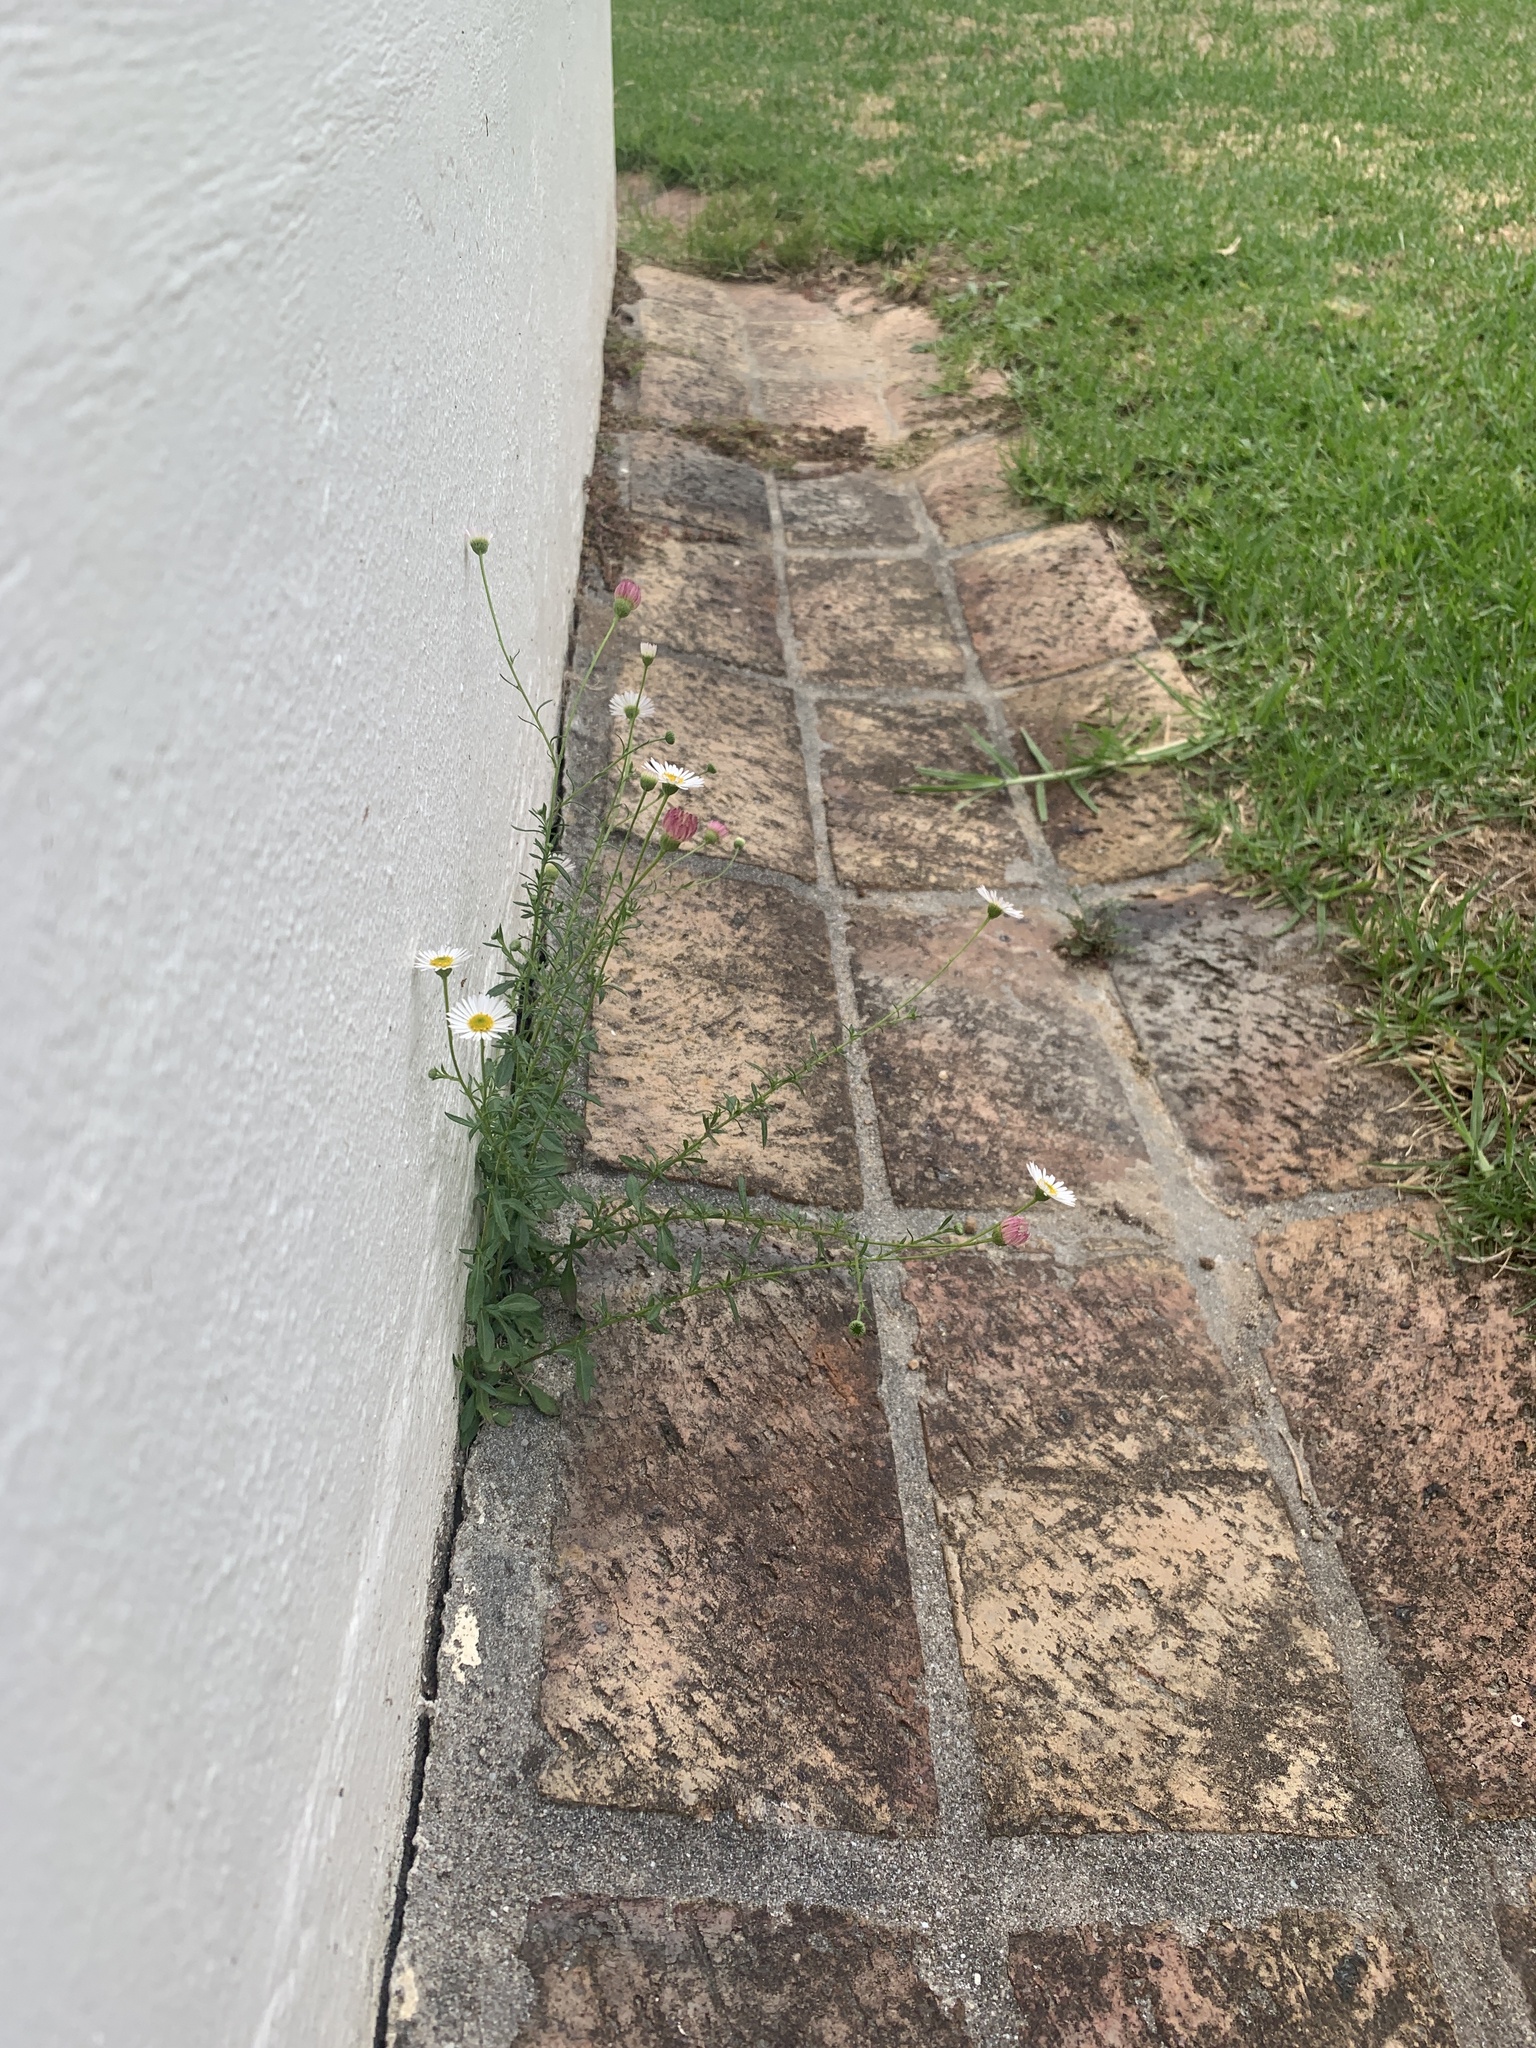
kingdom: Plantae
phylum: Tracheophyta
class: Magnoliopsida
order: Asterales
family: Asteraceae
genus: Erigeron
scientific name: Erigeron karvinskianus
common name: Mexican fleabane
